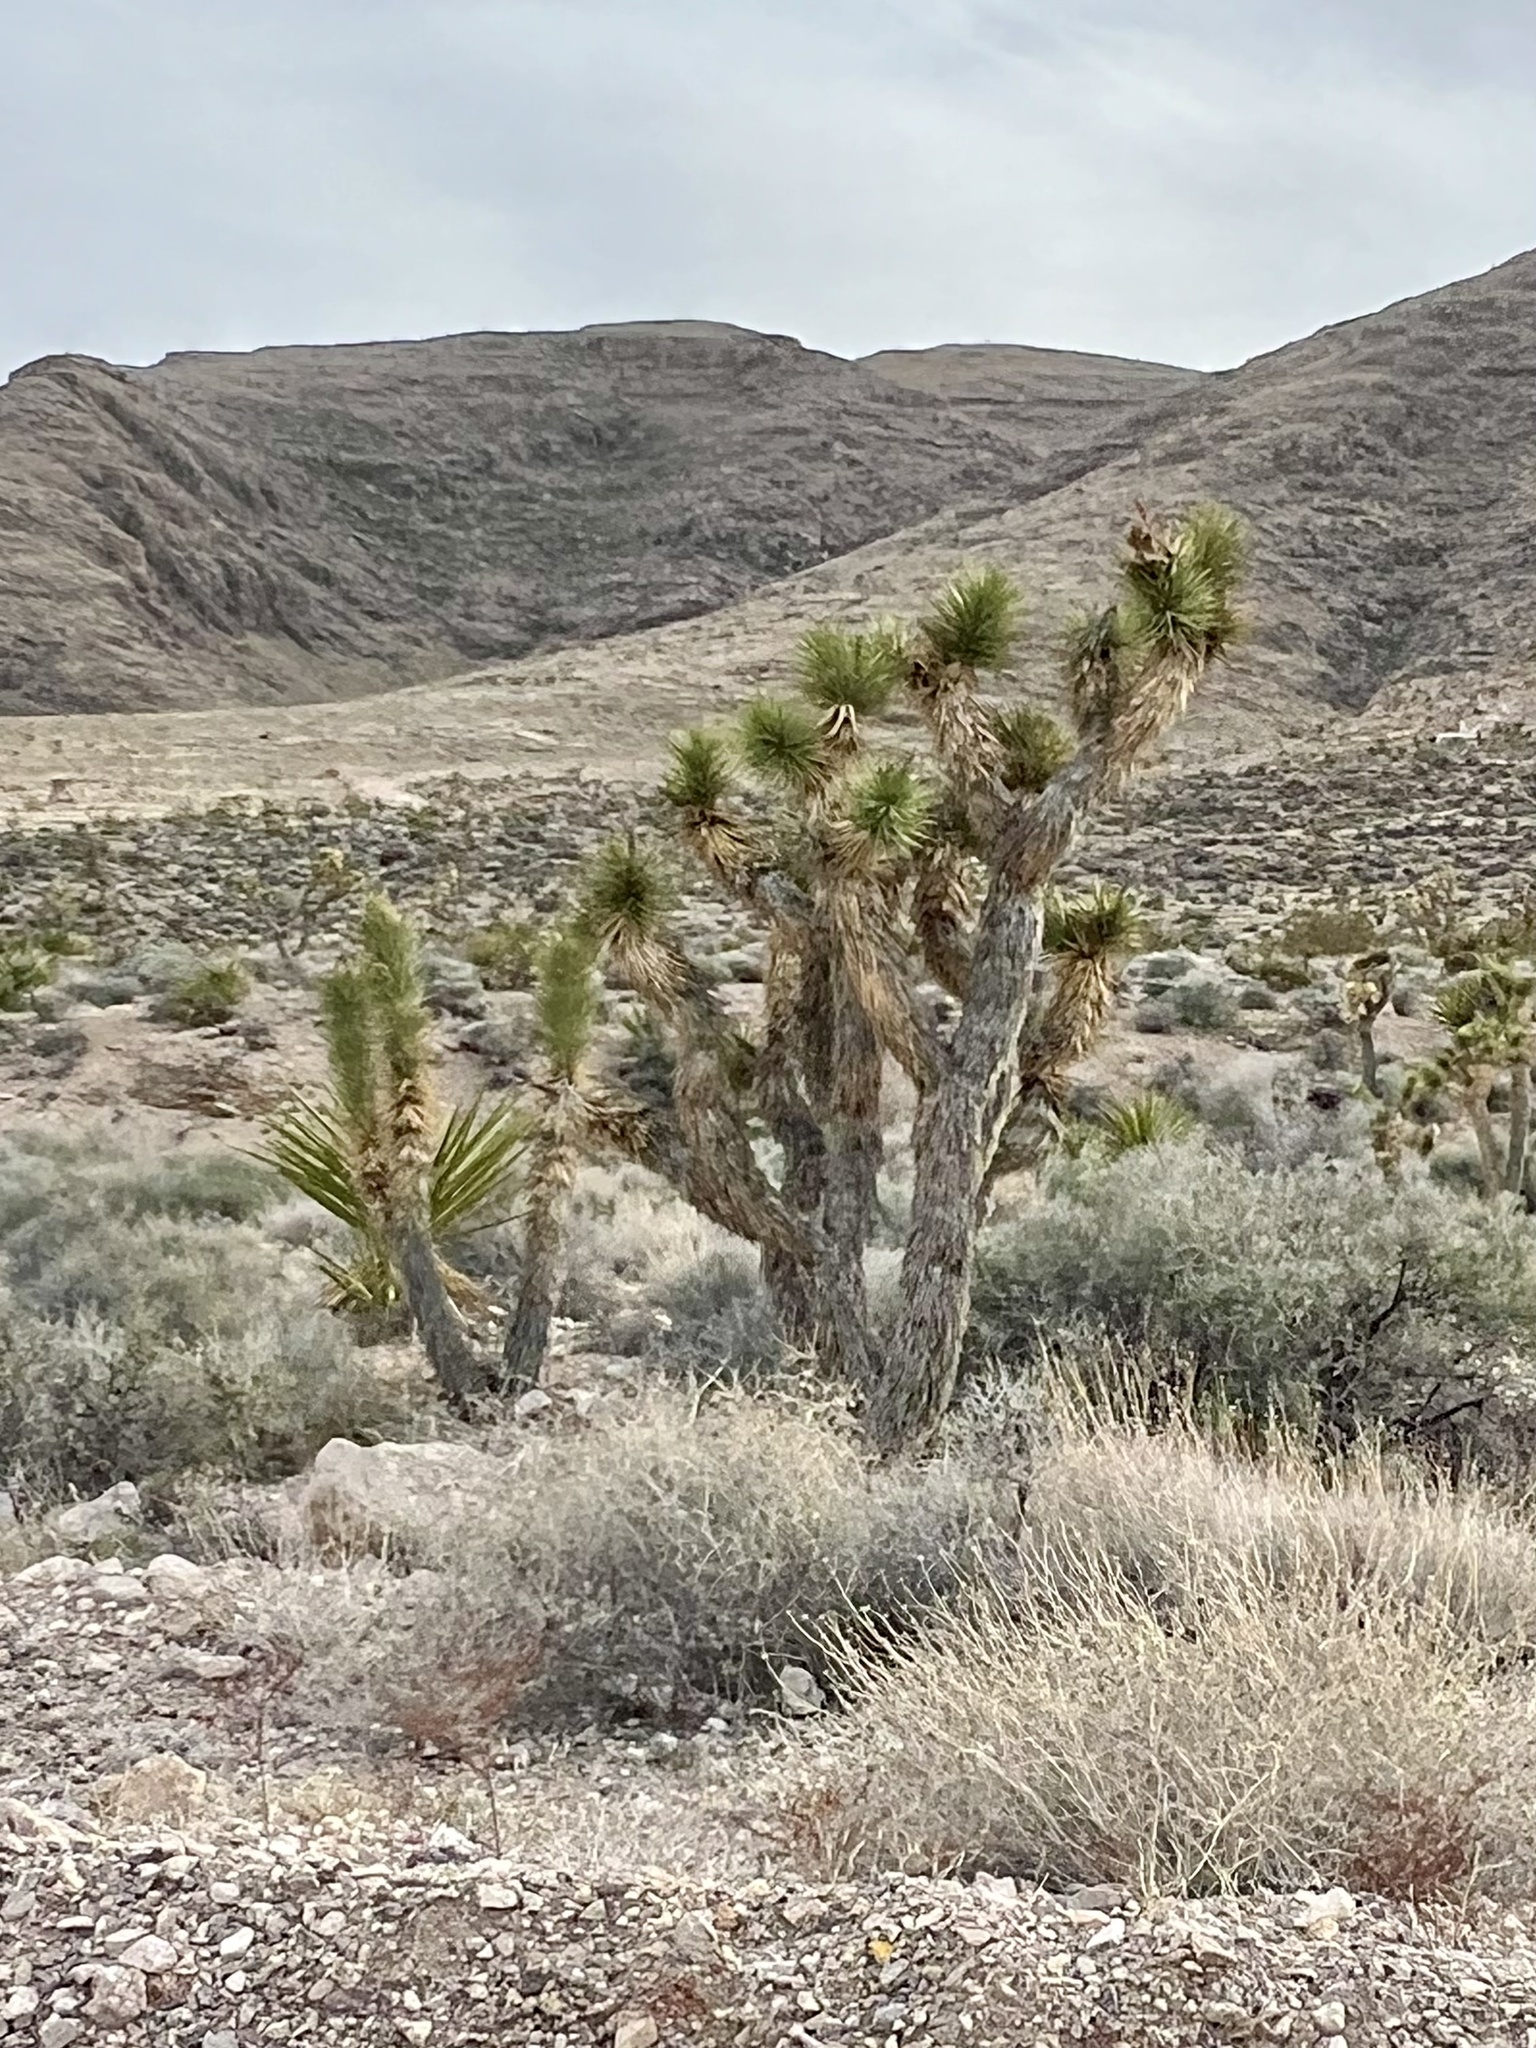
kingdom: Plantae
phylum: Tracheophyta
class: Liliopsida
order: Asparagales
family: Asparagaceae
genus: Yucca
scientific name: Yucca brevifolia
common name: Joshua tree
